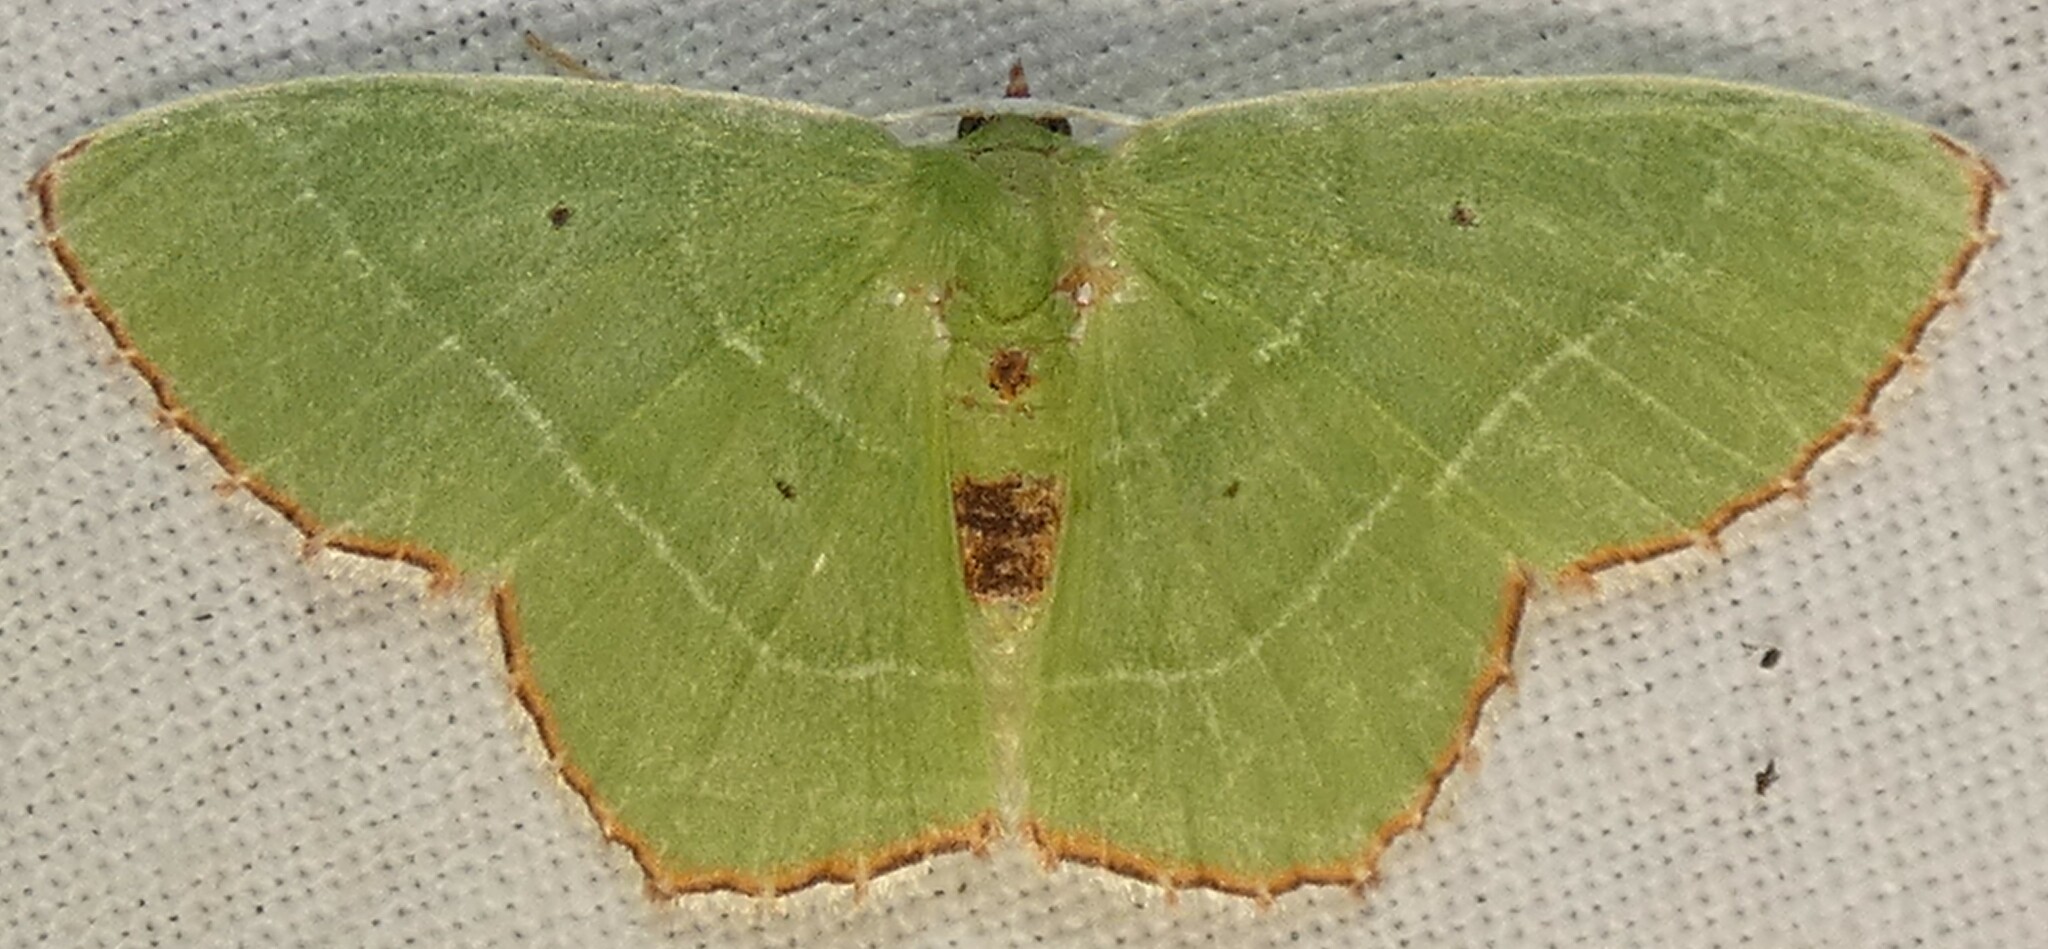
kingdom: Animalia
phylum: Arthropoda
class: Insecta
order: Lepidoptera
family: Geometridae
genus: Nemoria
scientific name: Nemoria saturiba
